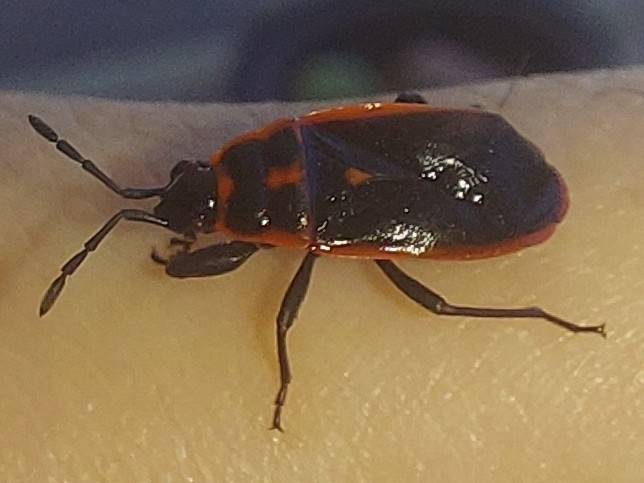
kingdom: Animalia
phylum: Arthropoda
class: Insecta
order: Hemiptera
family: Pyrrhocoridae
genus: Scantius
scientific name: Scantius forsteri
